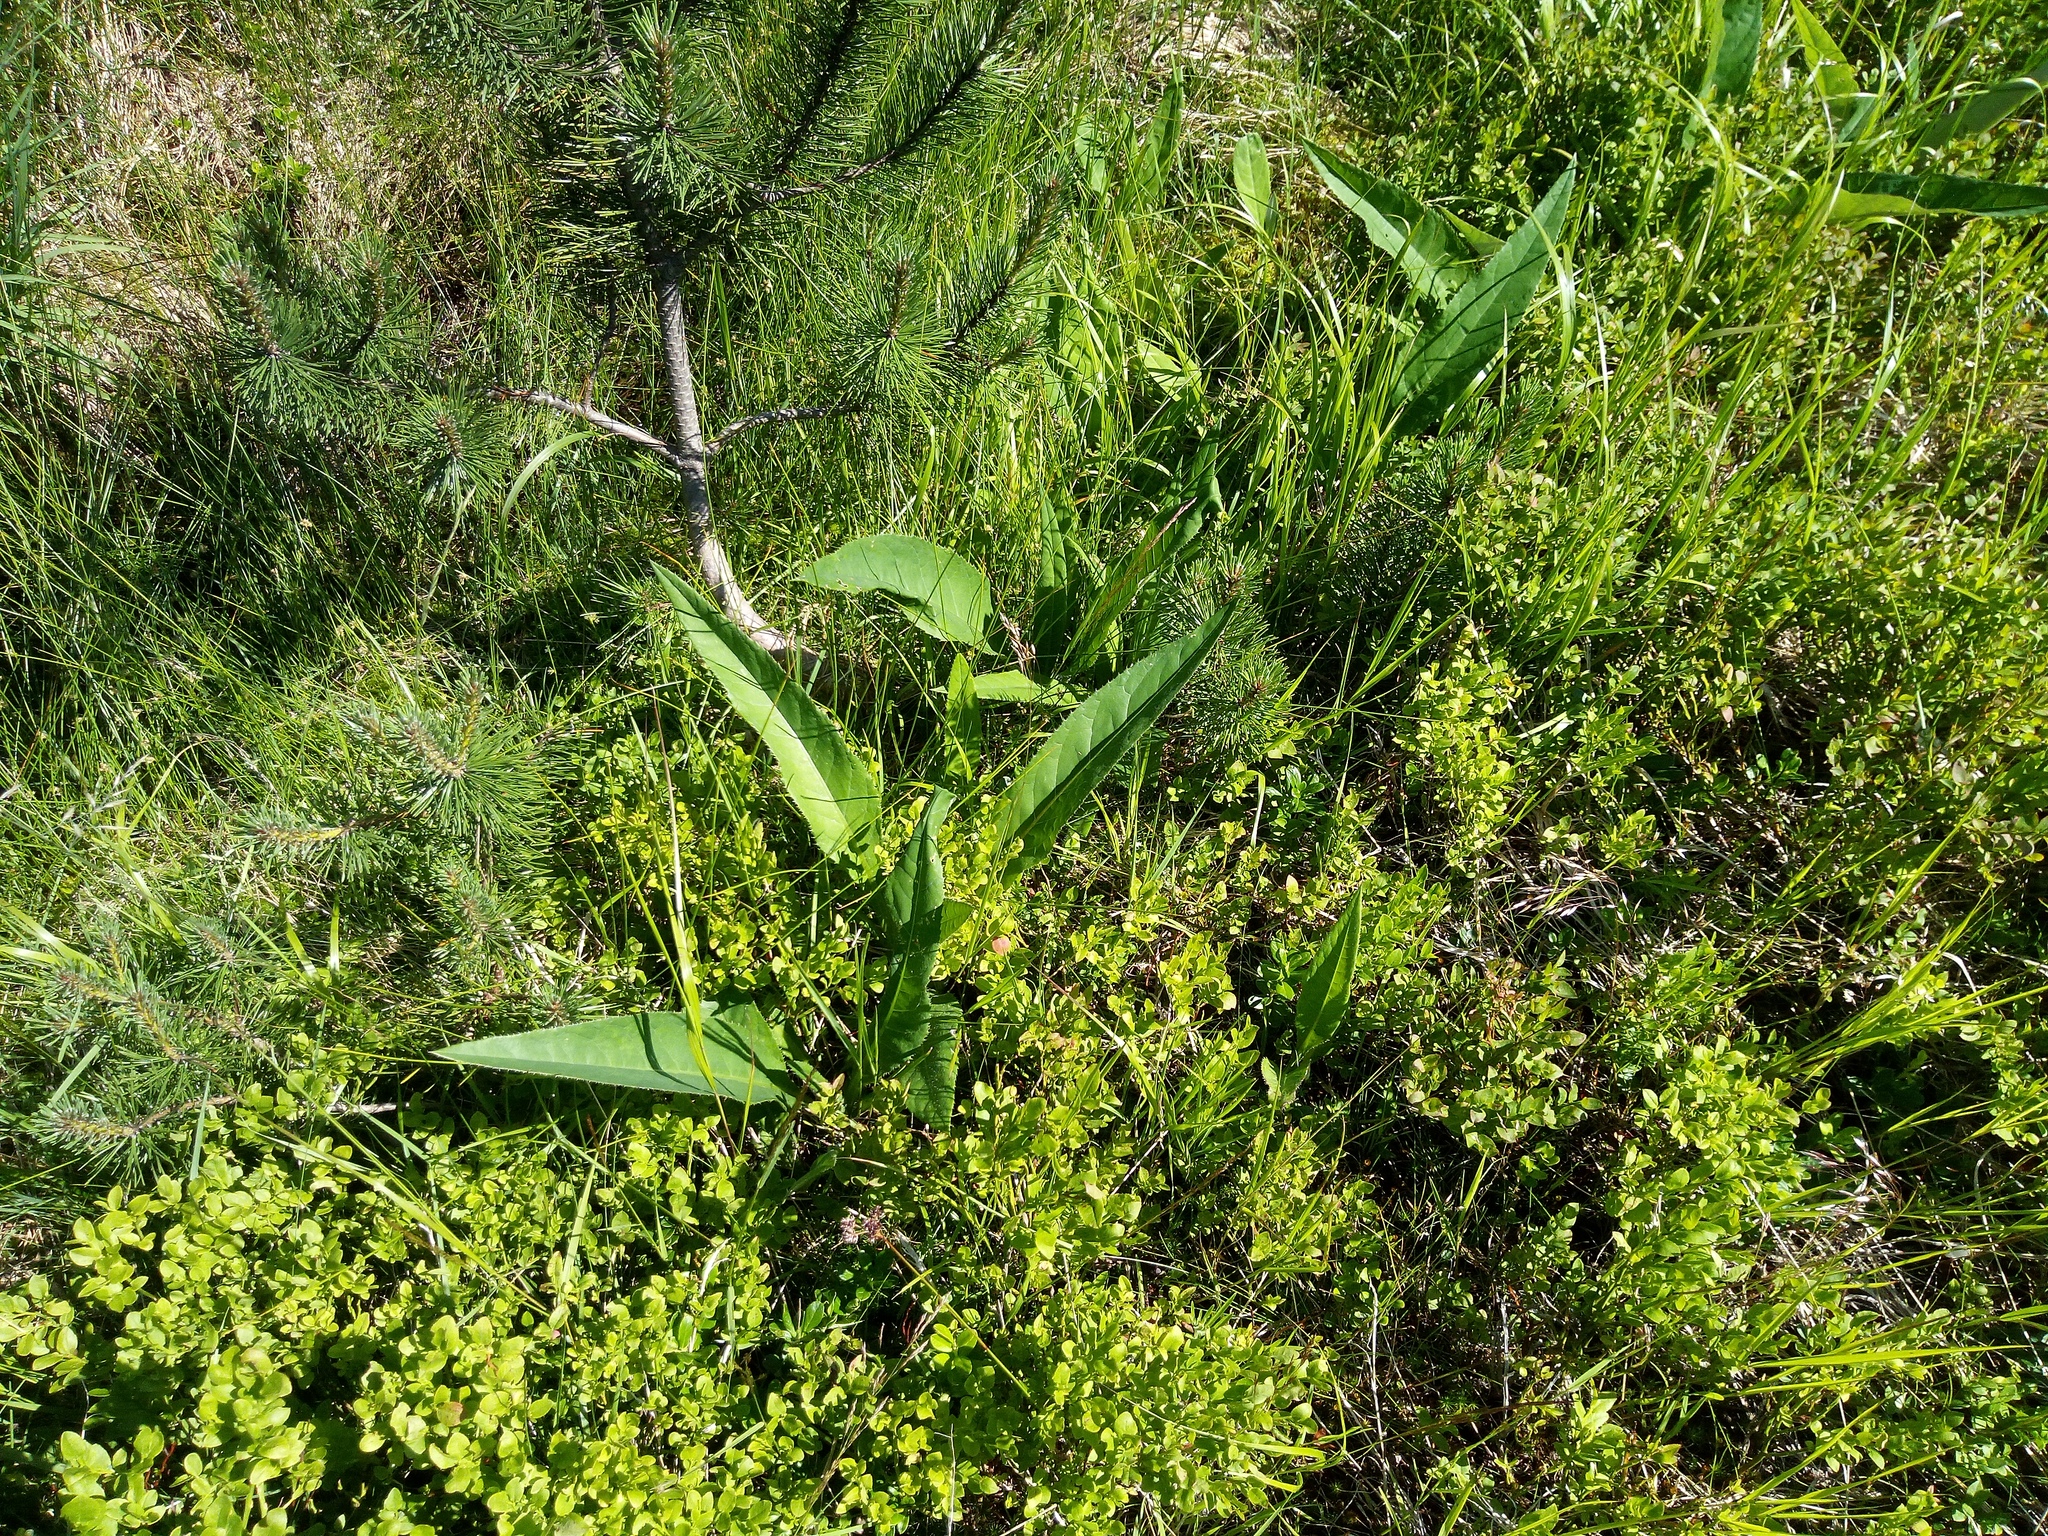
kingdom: Plantae
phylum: Tracheophyta
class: Magnoliopsida
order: Asterales
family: Asteraceae
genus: Cirsium
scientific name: Cirsium heterophyllum
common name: Melancholy thistle
